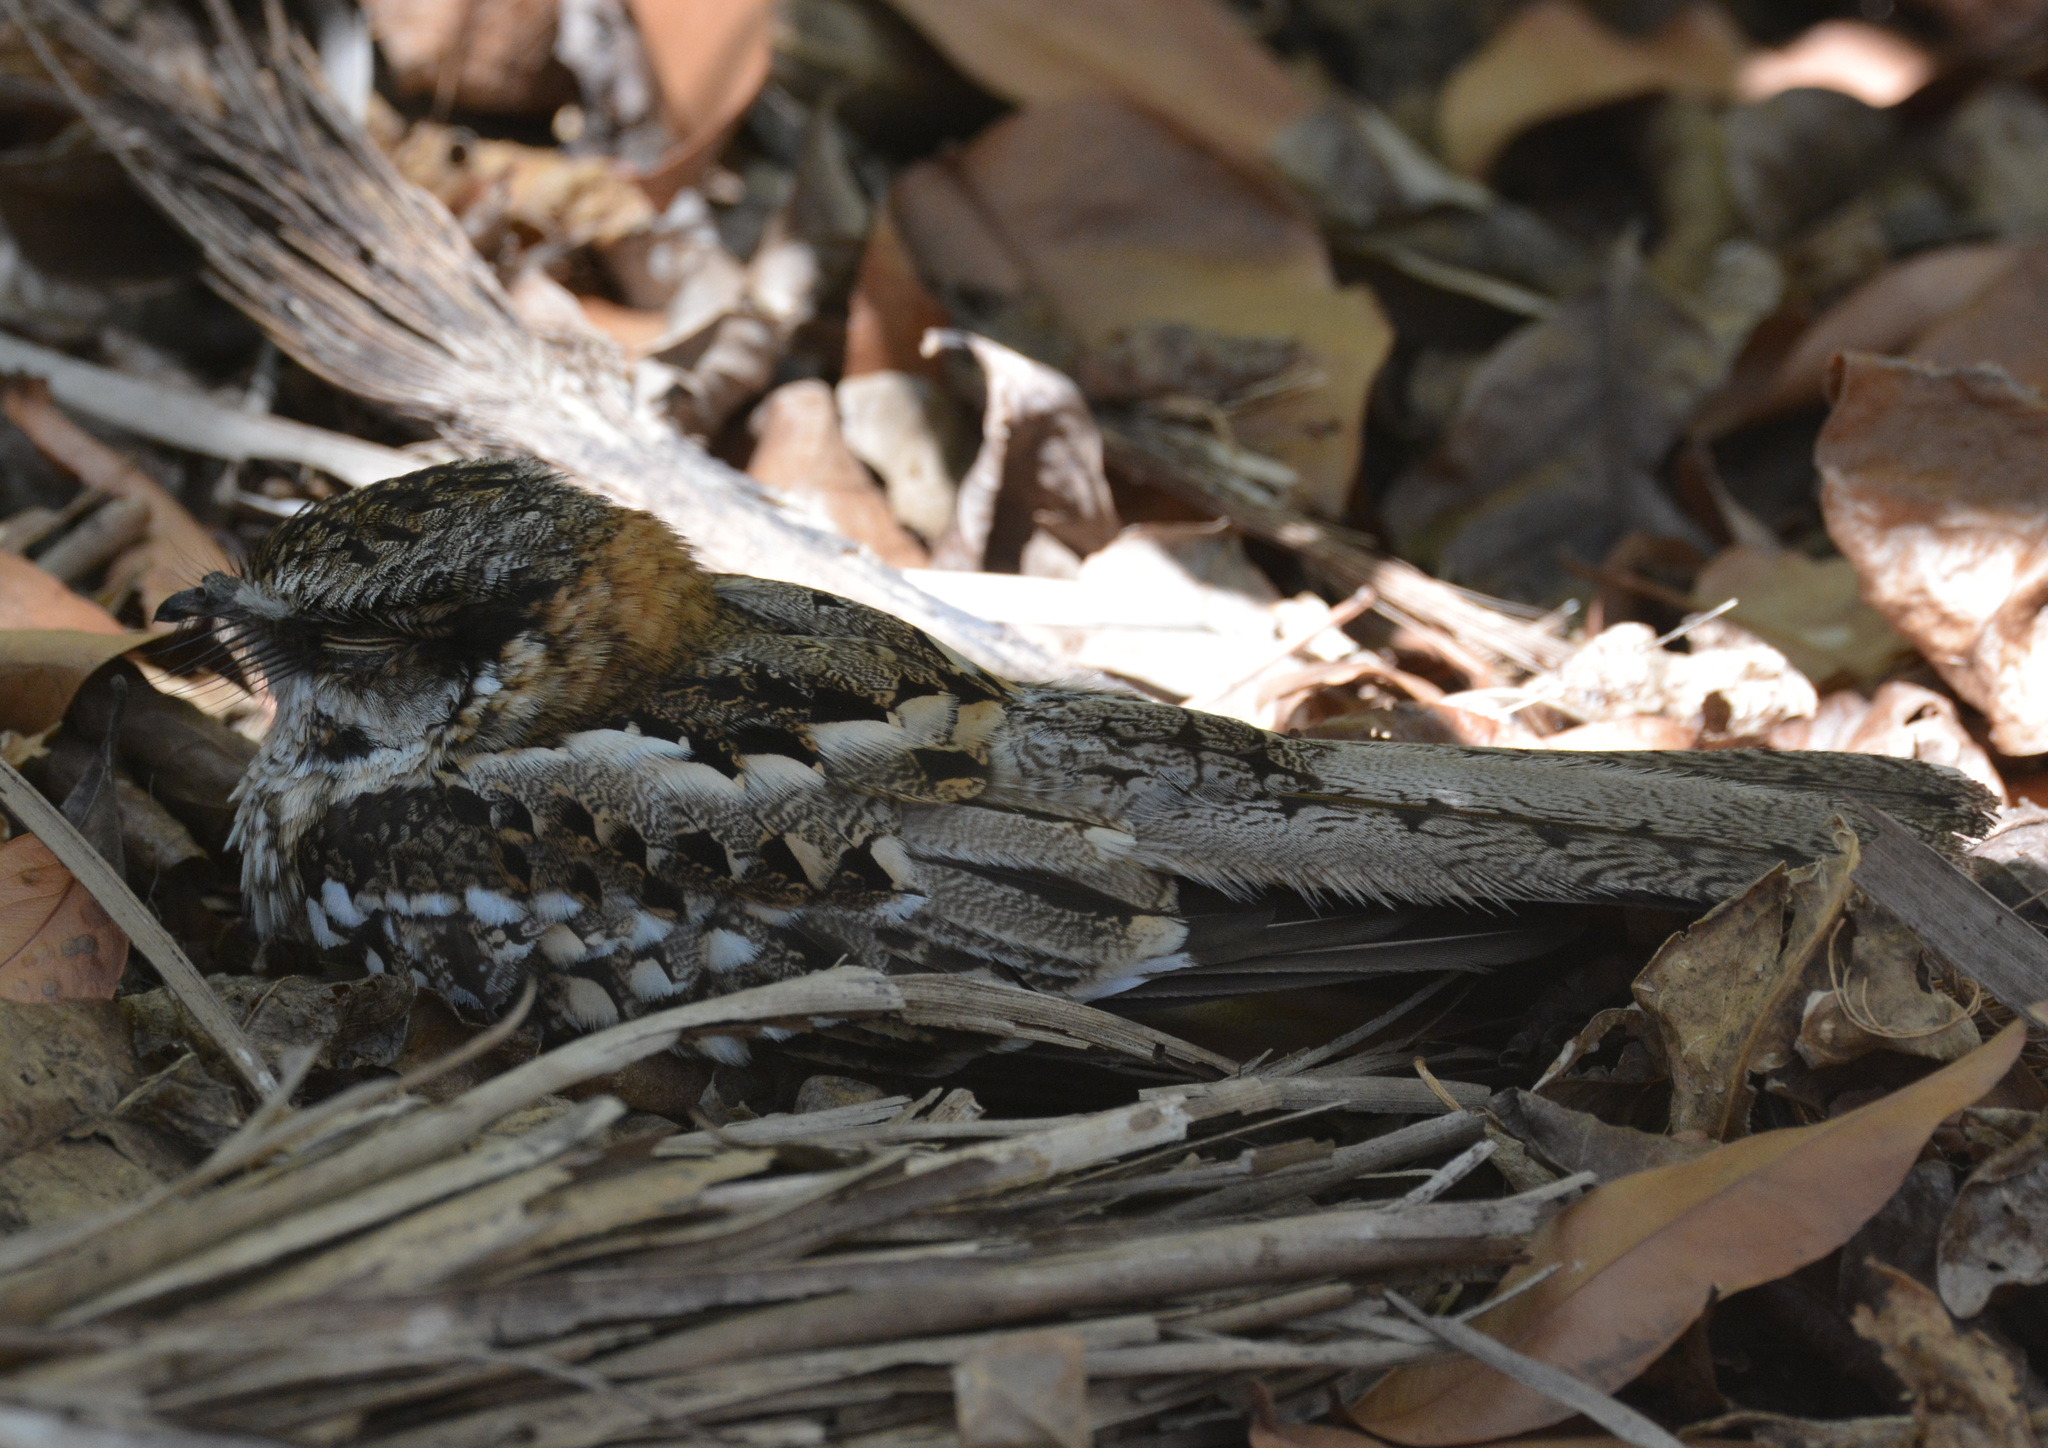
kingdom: Animalia
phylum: Chordata
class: Aves
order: Caprimulgiformes
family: Caprimulgidae
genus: Hydropsalis
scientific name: Hydropsalis cayennensis
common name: White-tailed nightjar
